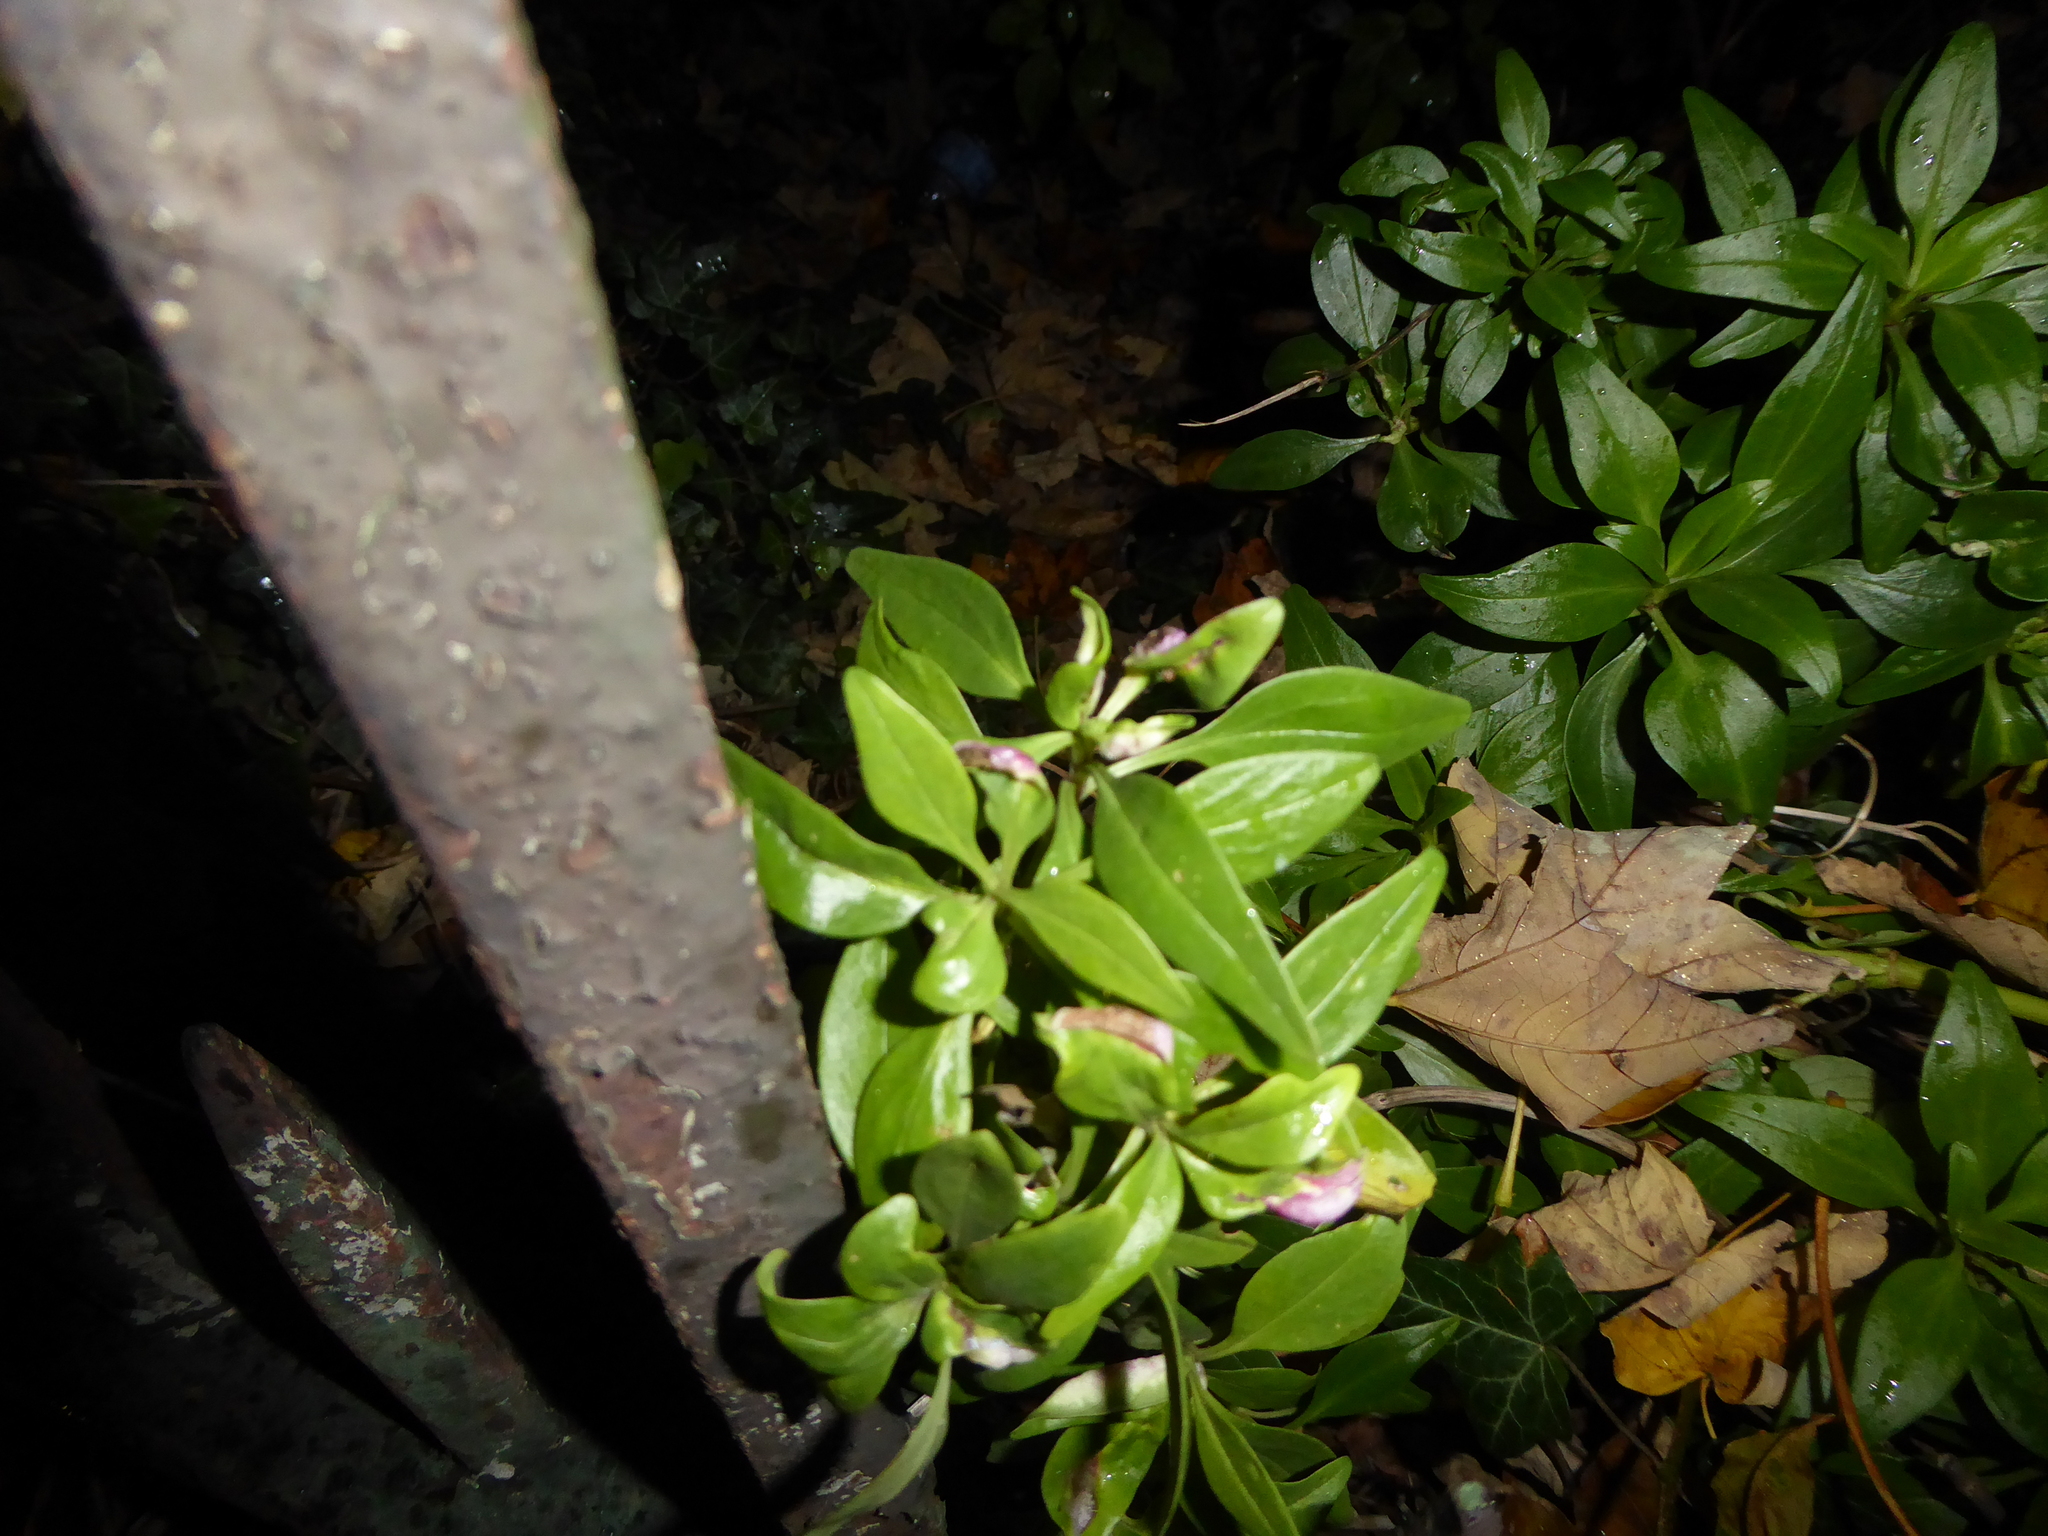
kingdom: Plantae
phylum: Tracheophyta
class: Magnoliopsida
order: Dipsacales
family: Caprifoliaceae
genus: Centranthus
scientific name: Centranthus ruber
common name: Red valerian
